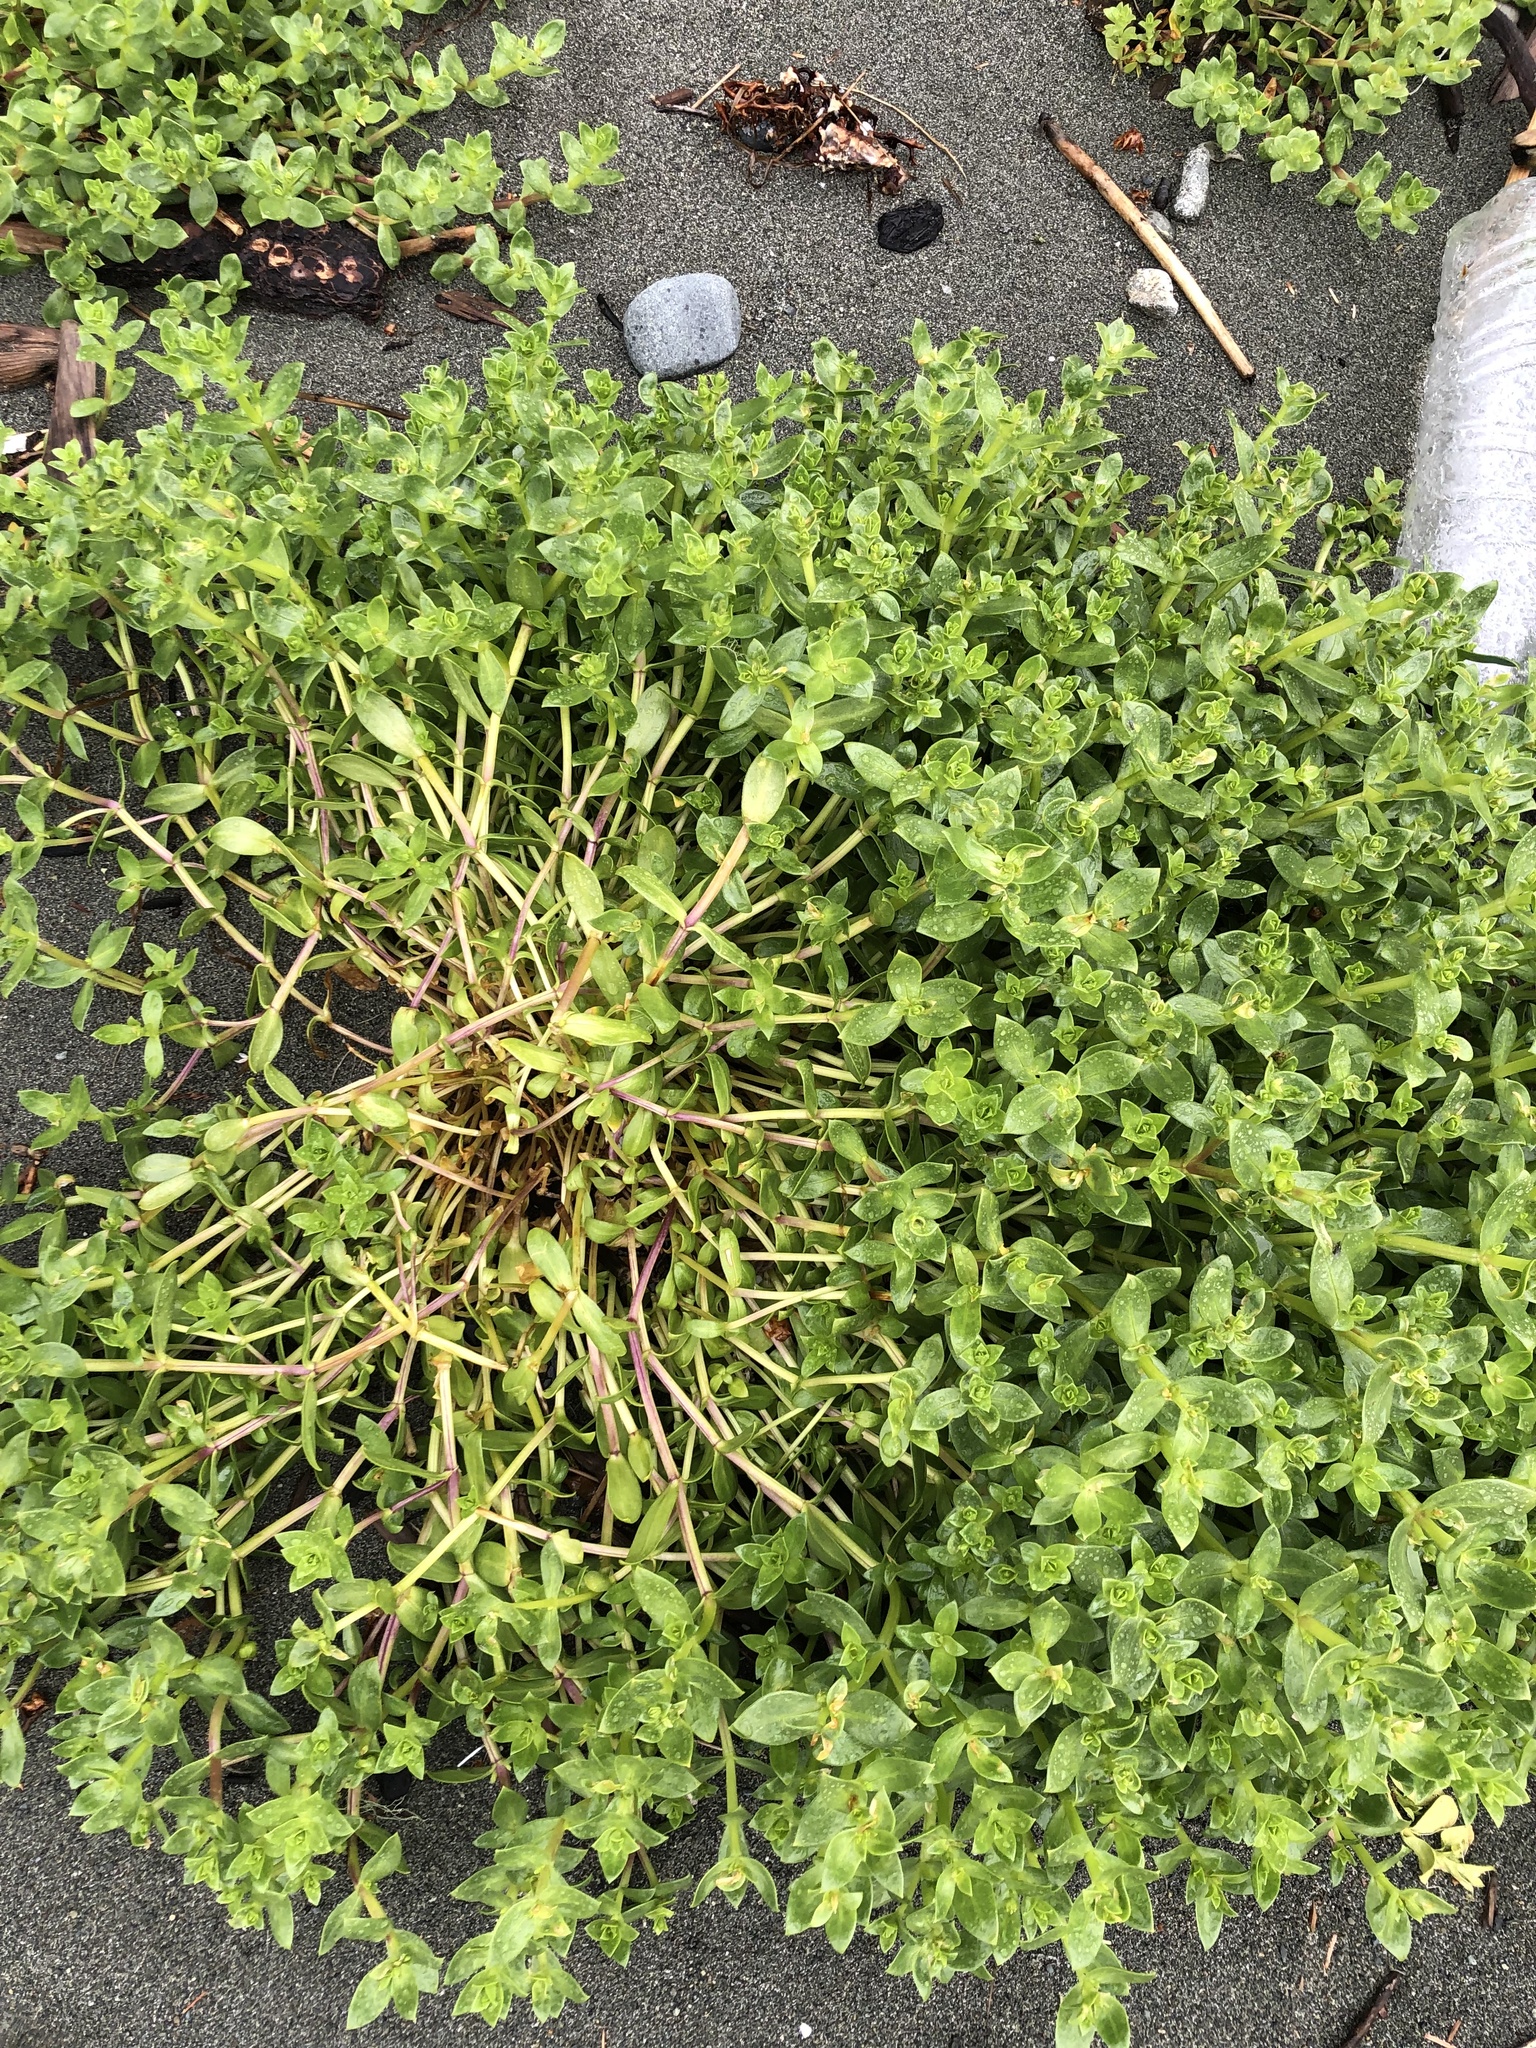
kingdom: Plantae
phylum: Tracheophyta
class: Magnoliopsida
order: Caryophyllales
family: Caryophyllaceae
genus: Honckenya
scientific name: Honckenya peploides
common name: Sea sandwort
